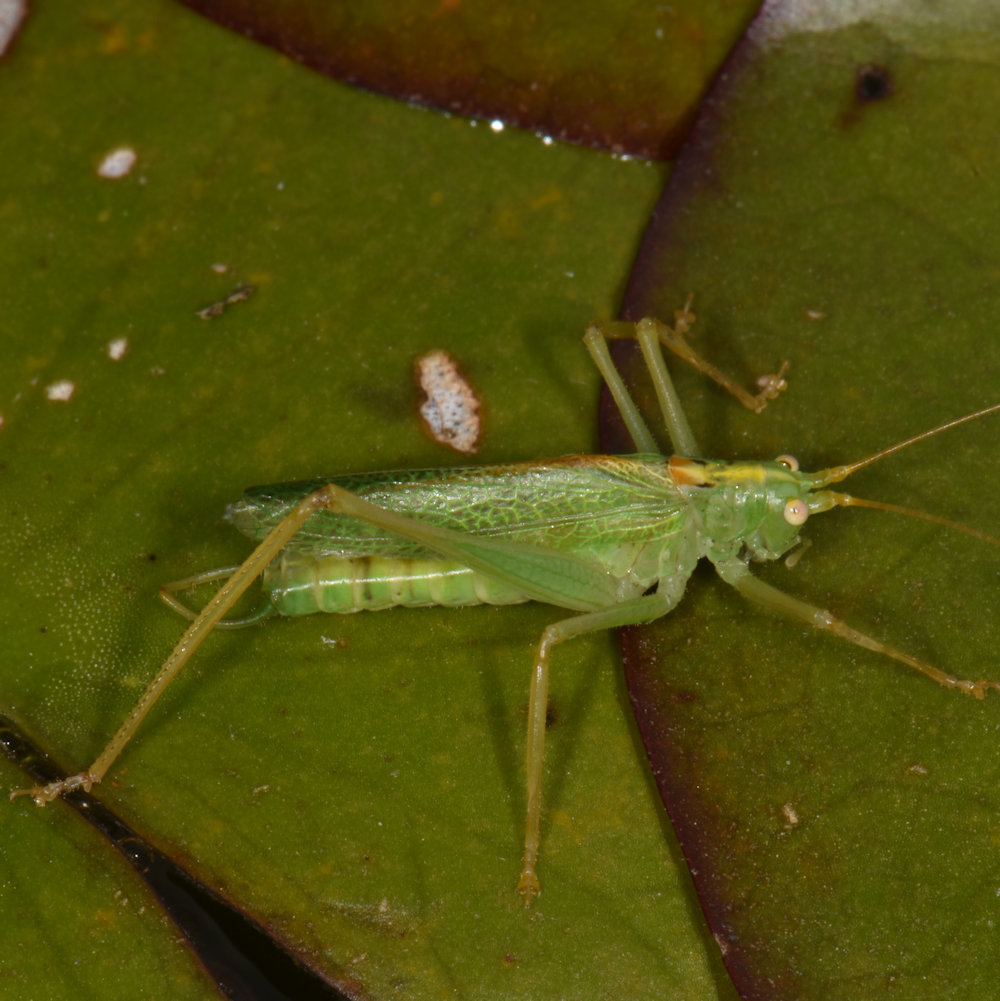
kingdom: Animalia
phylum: Arthropoda
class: Insecta
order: Orthoptera
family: Tettigoniidae
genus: Meconema
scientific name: Meconema thalassinum
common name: Oak bush-cricket
